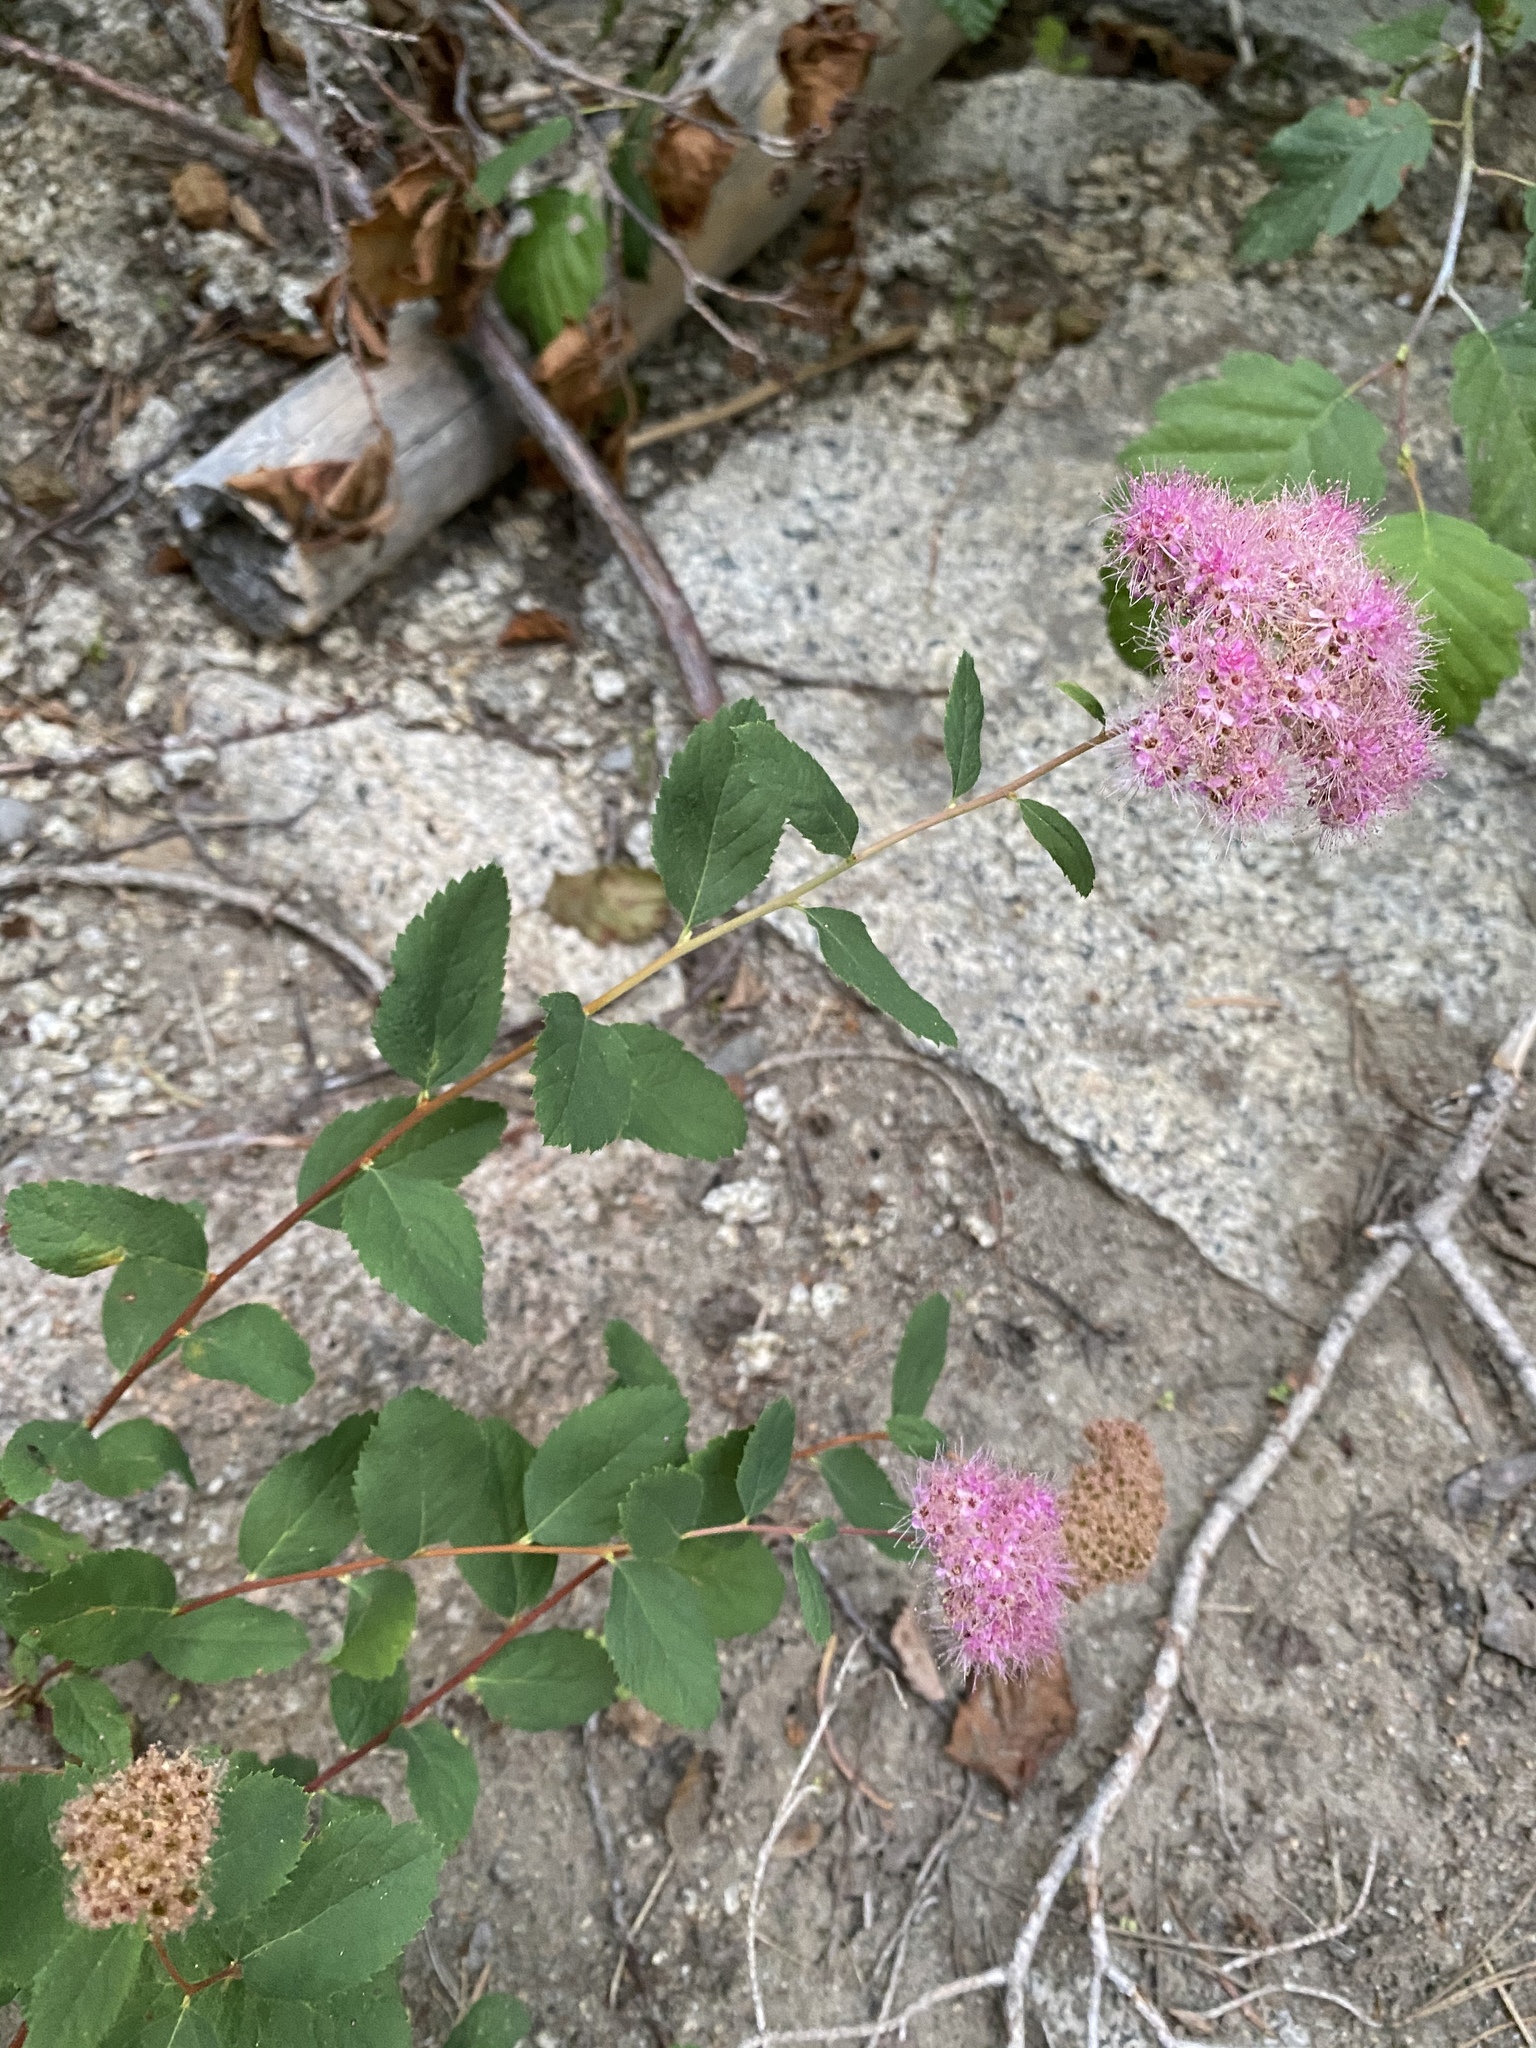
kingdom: Plantae
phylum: Tracheophyta
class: Magnoliopsida
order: Rosales
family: Rosaceae
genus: Spiraea
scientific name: Spiraea splendens
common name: Subalpine meadowsweet
